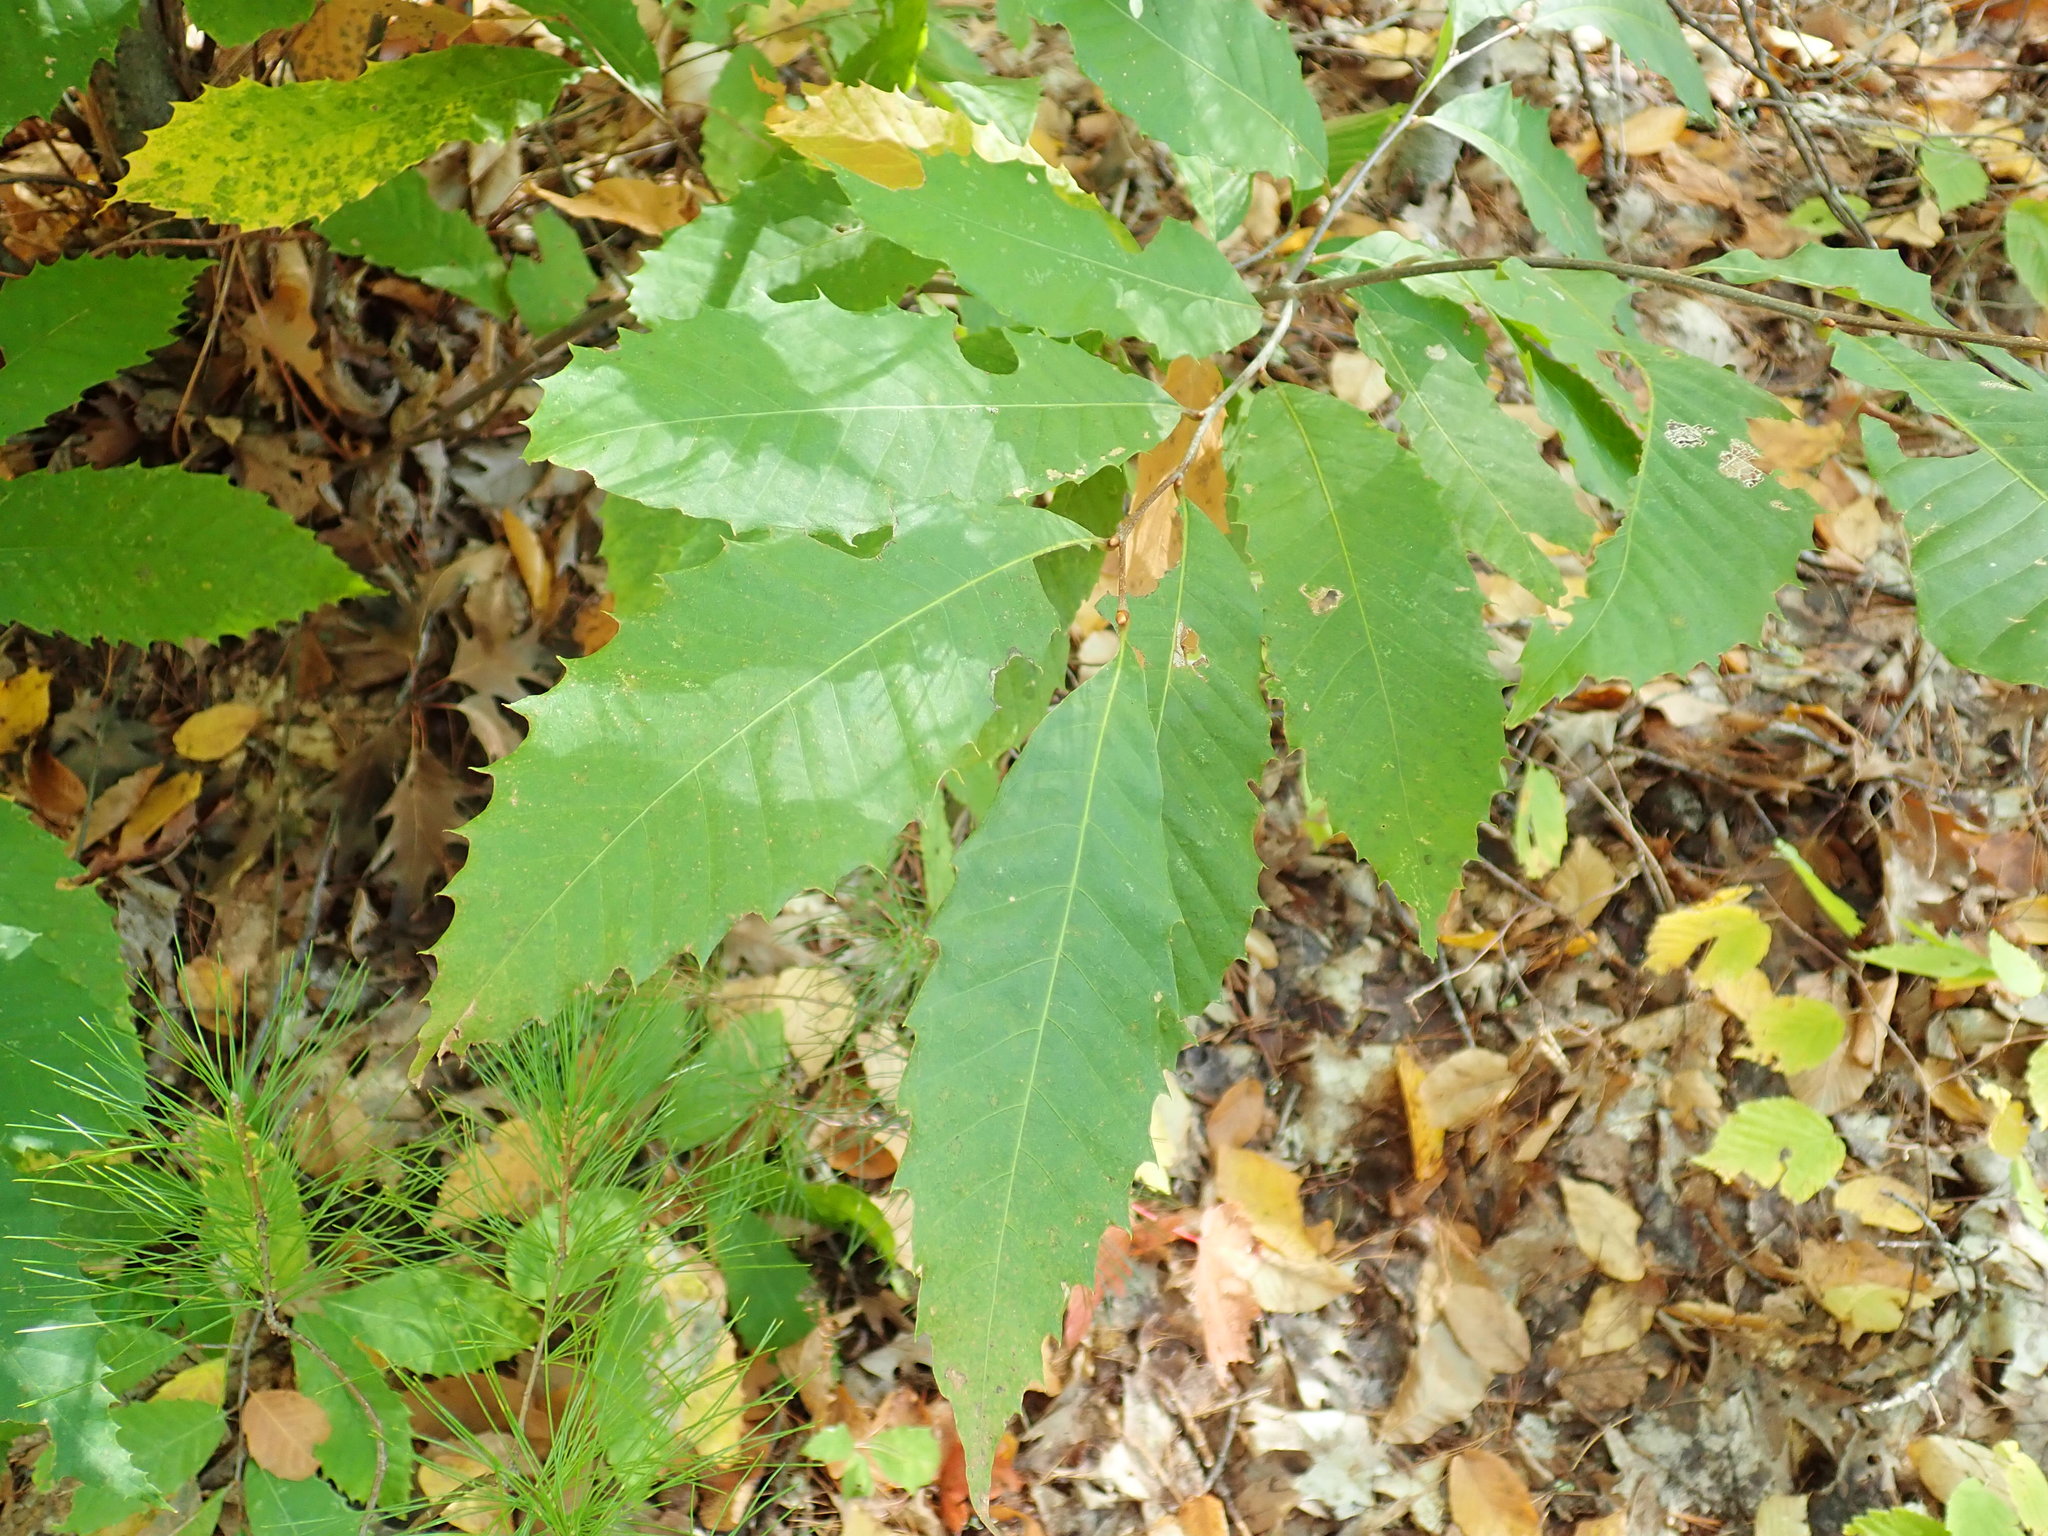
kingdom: Plantae
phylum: Tracheophyta
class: Magnoliopsida
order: Fagales
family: Fagaceae
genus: Castanea
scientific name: Castanea dentata
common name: American chestnut
